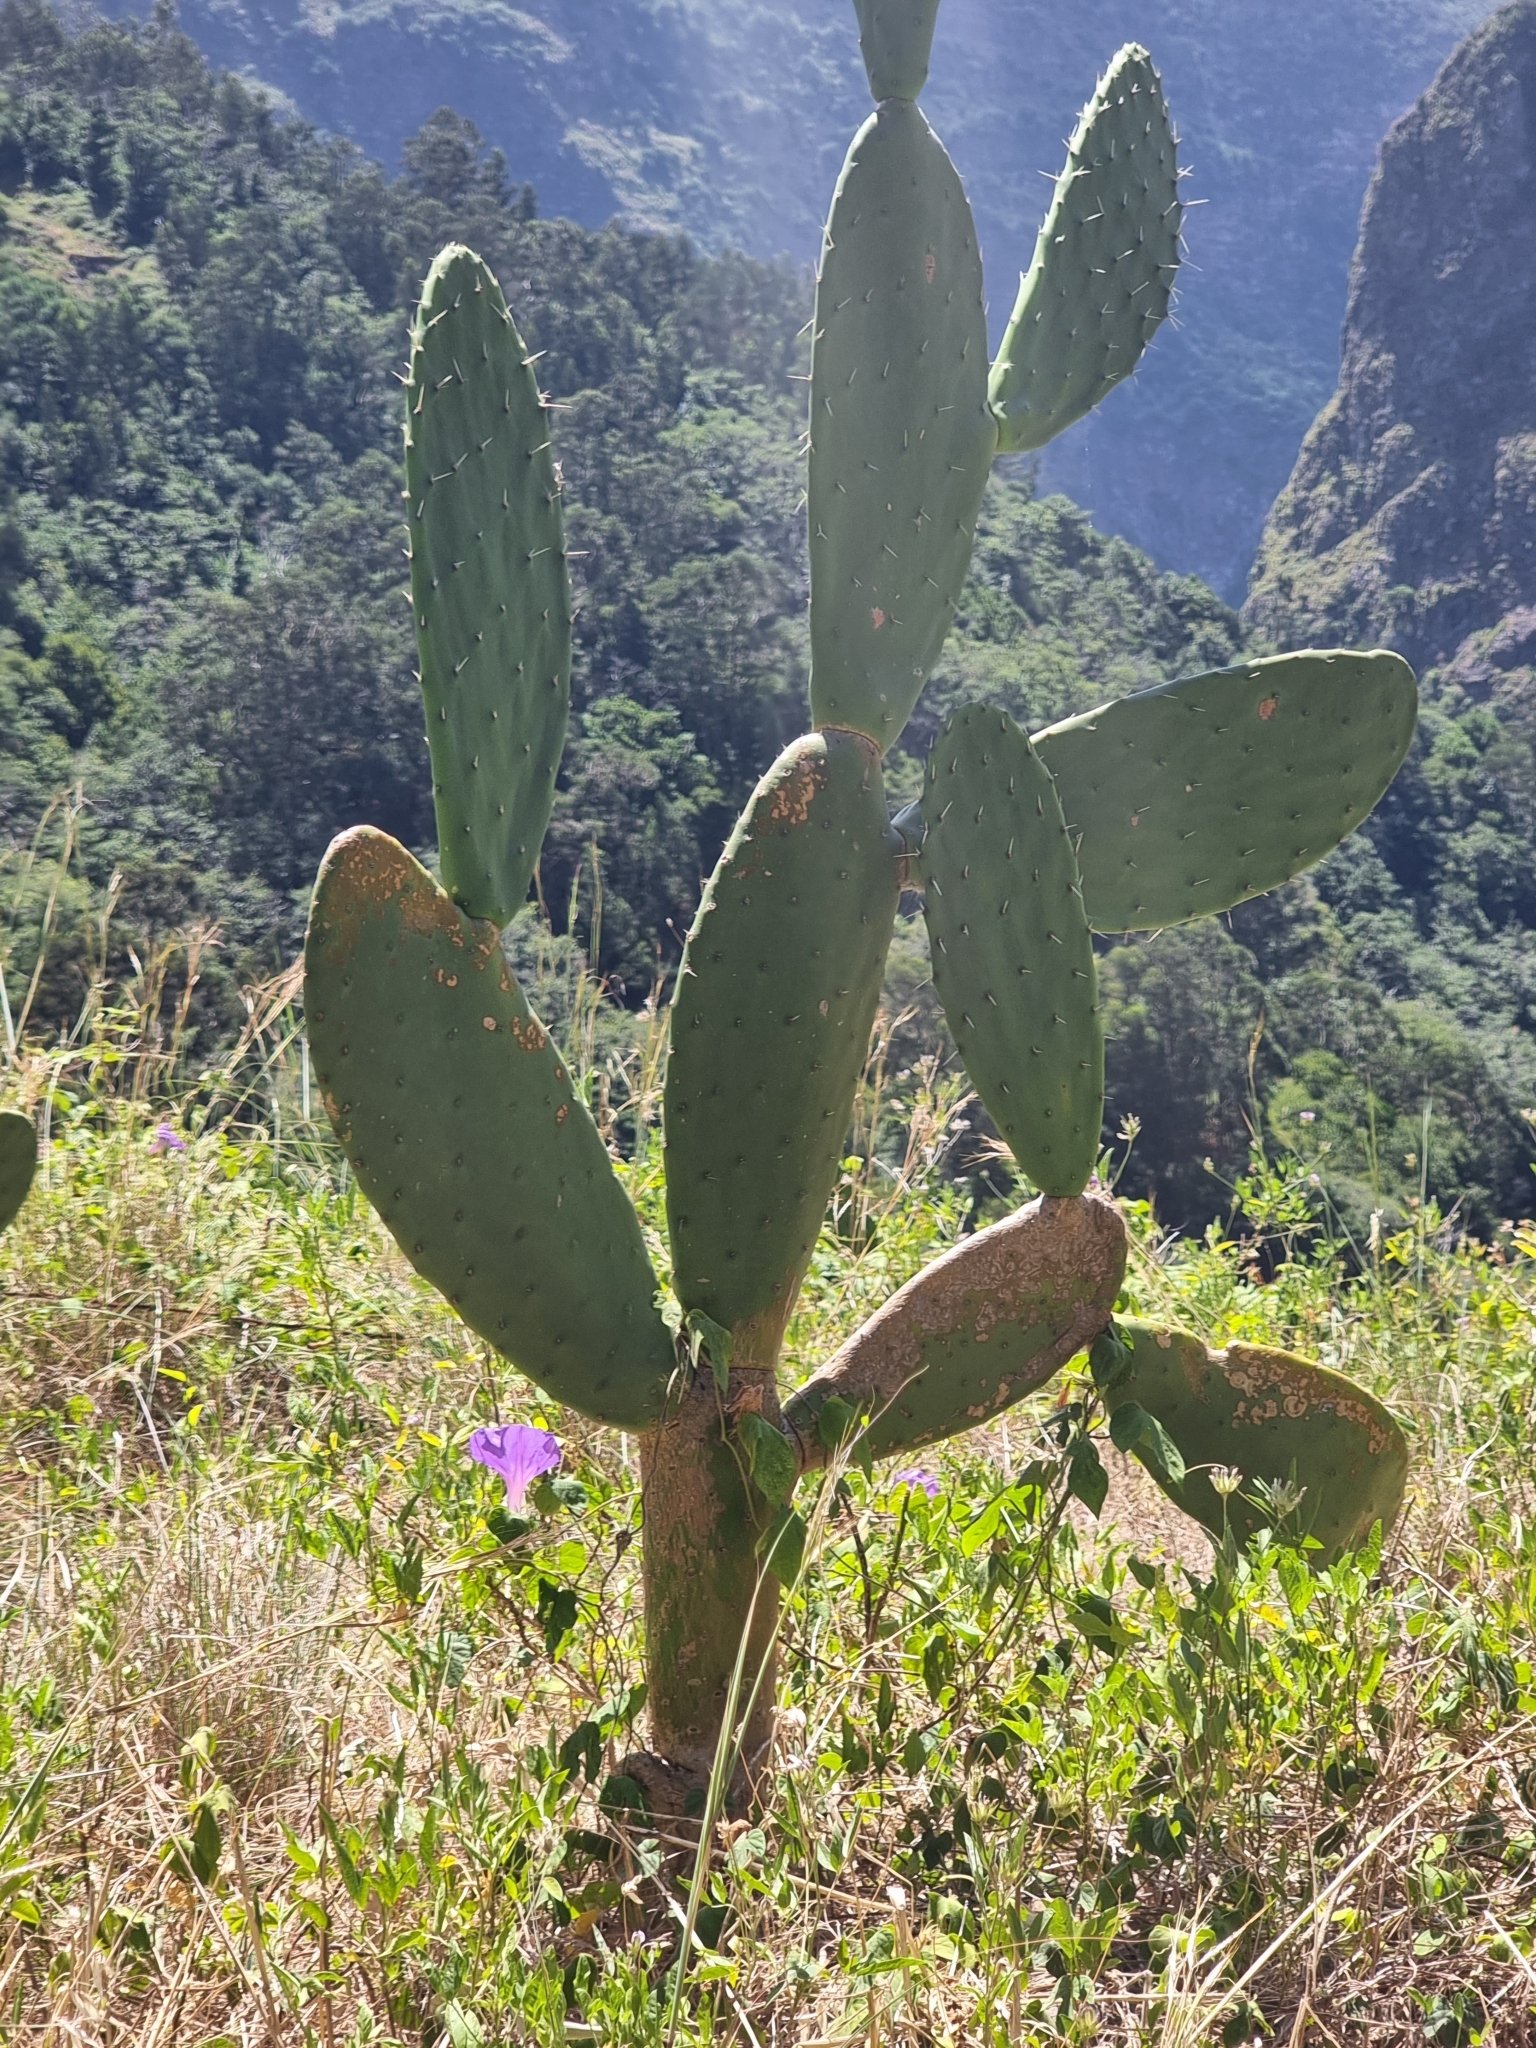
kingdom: Plantae
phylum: Tracheophyta
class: Magnoliopsida
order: Caryophyllales
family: Cactaceae
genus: Opuntia
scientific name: Opuntia ficus-indica
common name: Barbary fig
